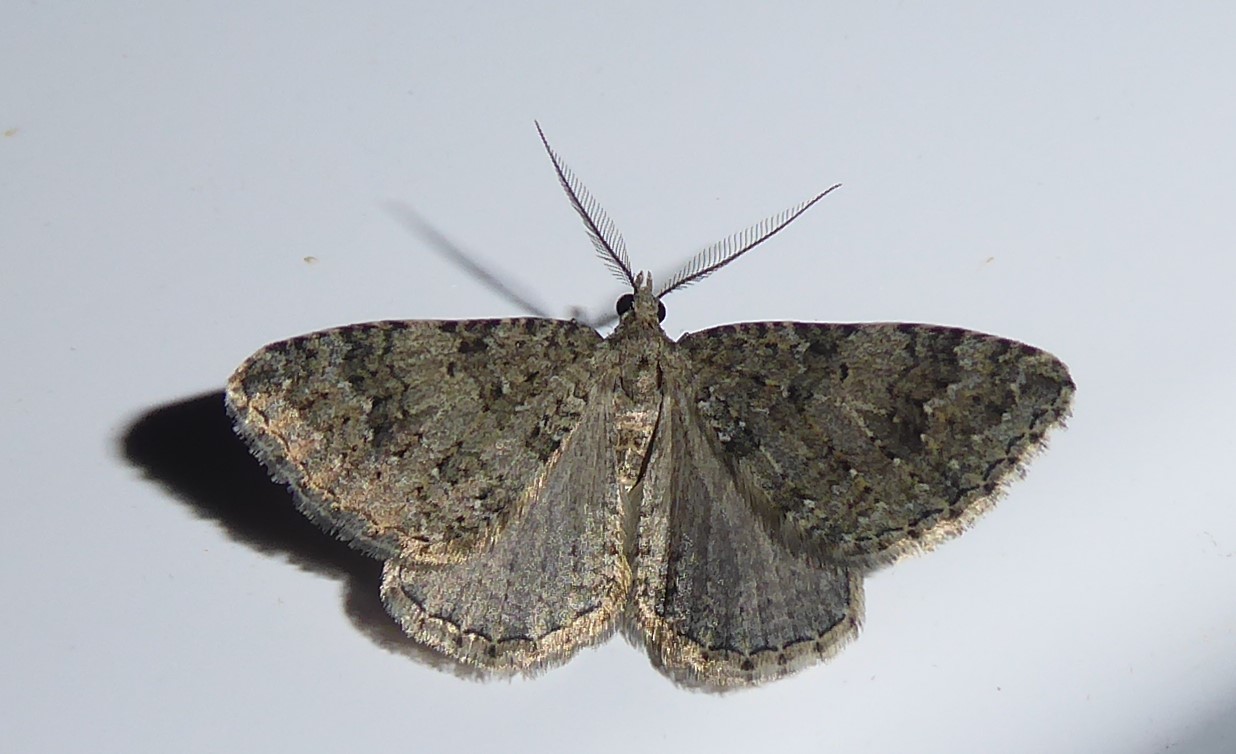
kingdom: Animalia
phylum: Arthropoda
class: Insecta
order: Lepidoptera
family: Geometridae
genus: Helastia
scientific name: Helastia corcularia
